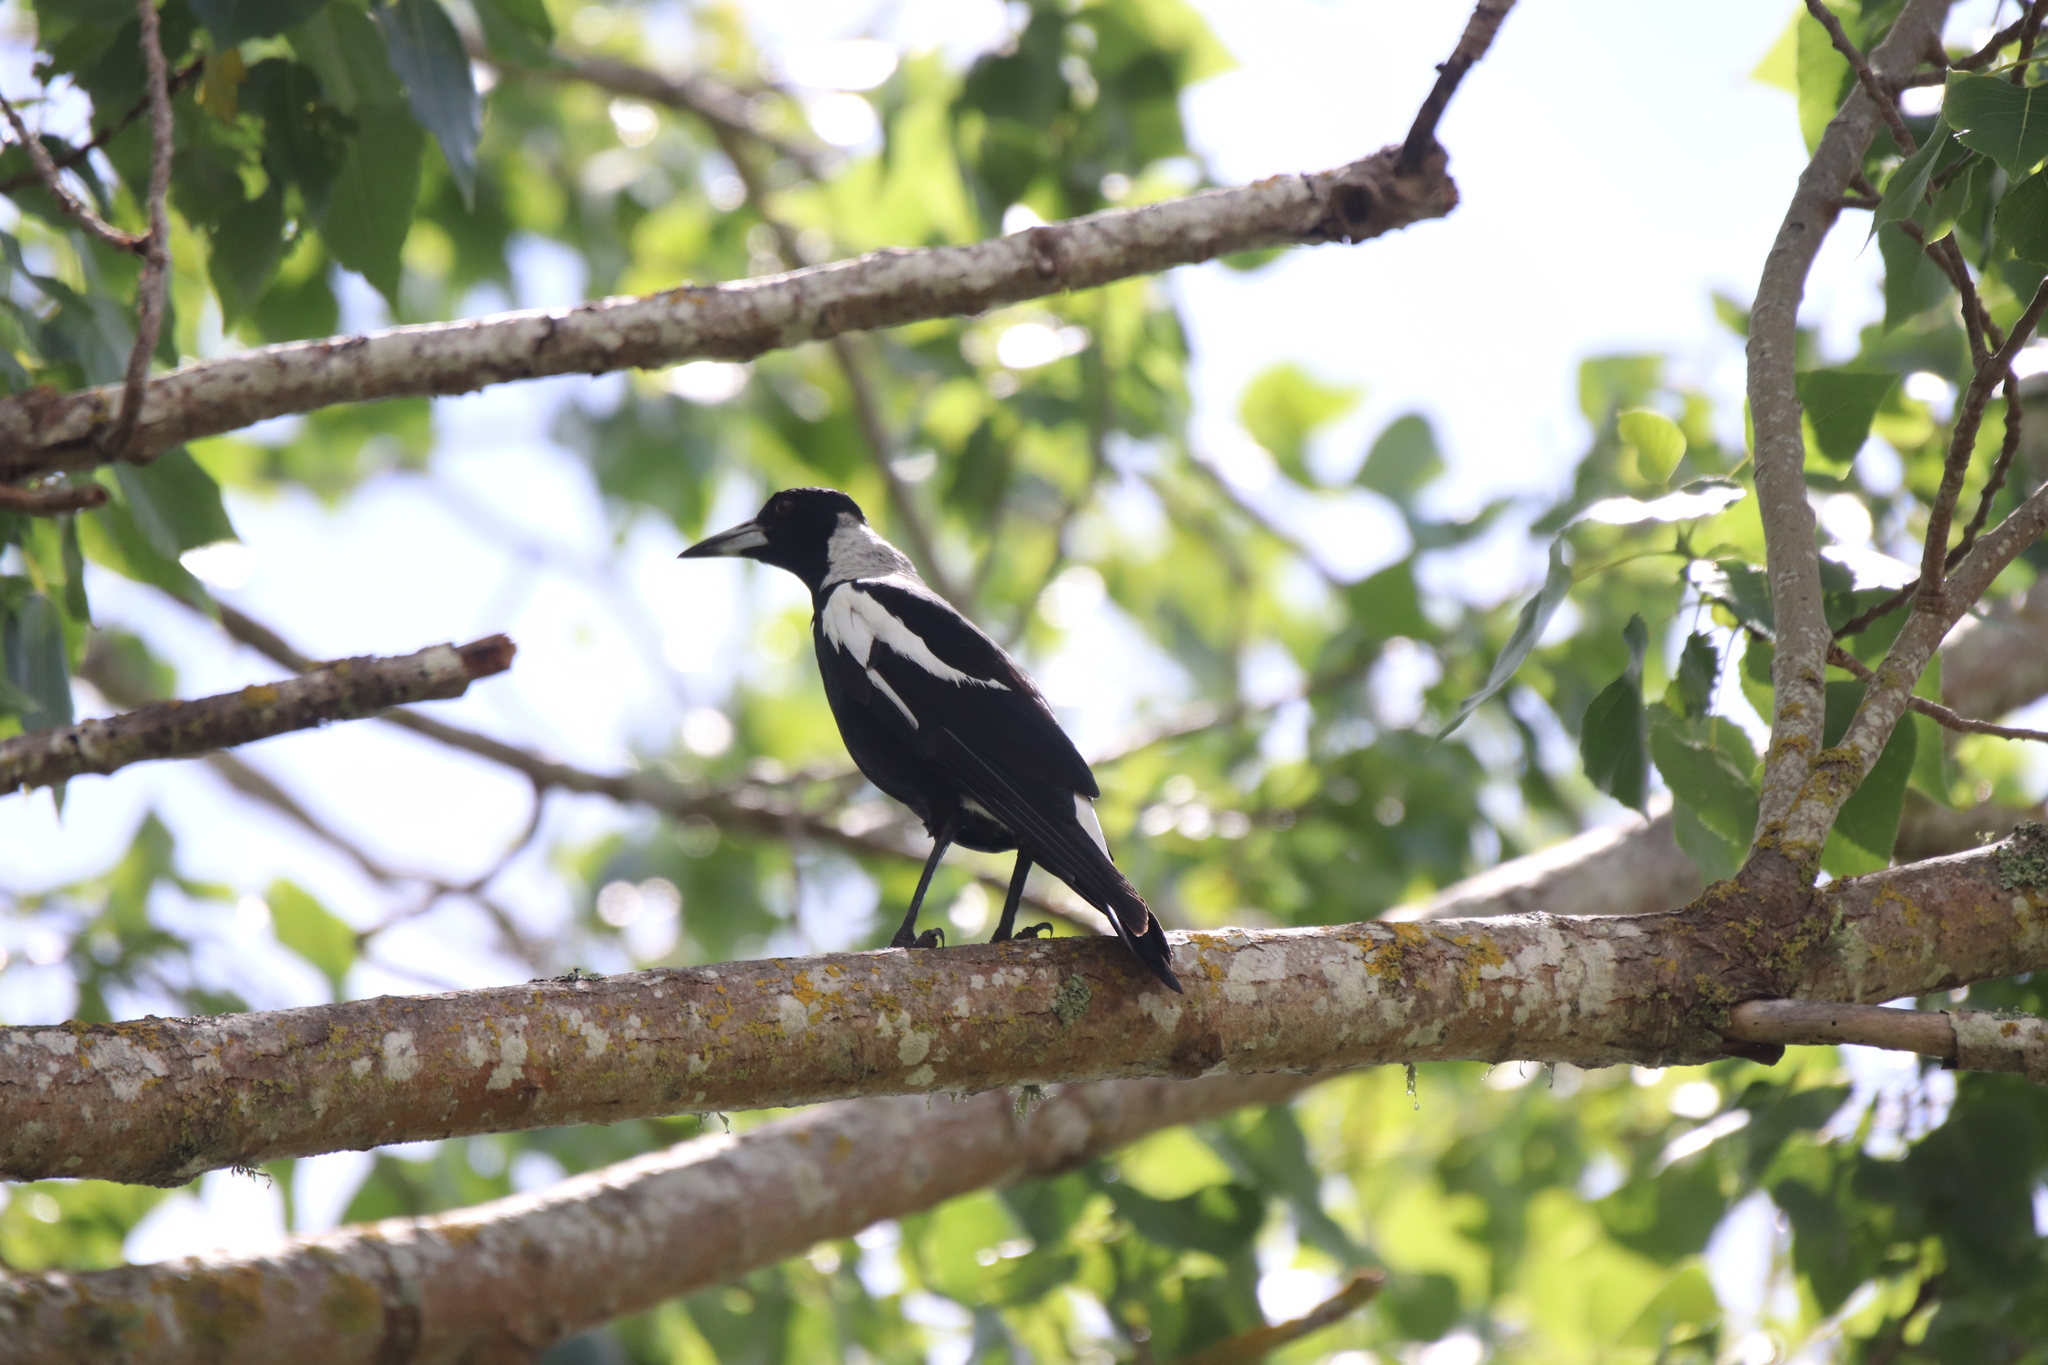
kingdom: Animalia
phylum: Chordata
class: Aves
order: Passeriformes
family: Cracticidae
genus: Gymnorhina
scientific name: Gymnorhina tibicen
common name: Australian magpie
